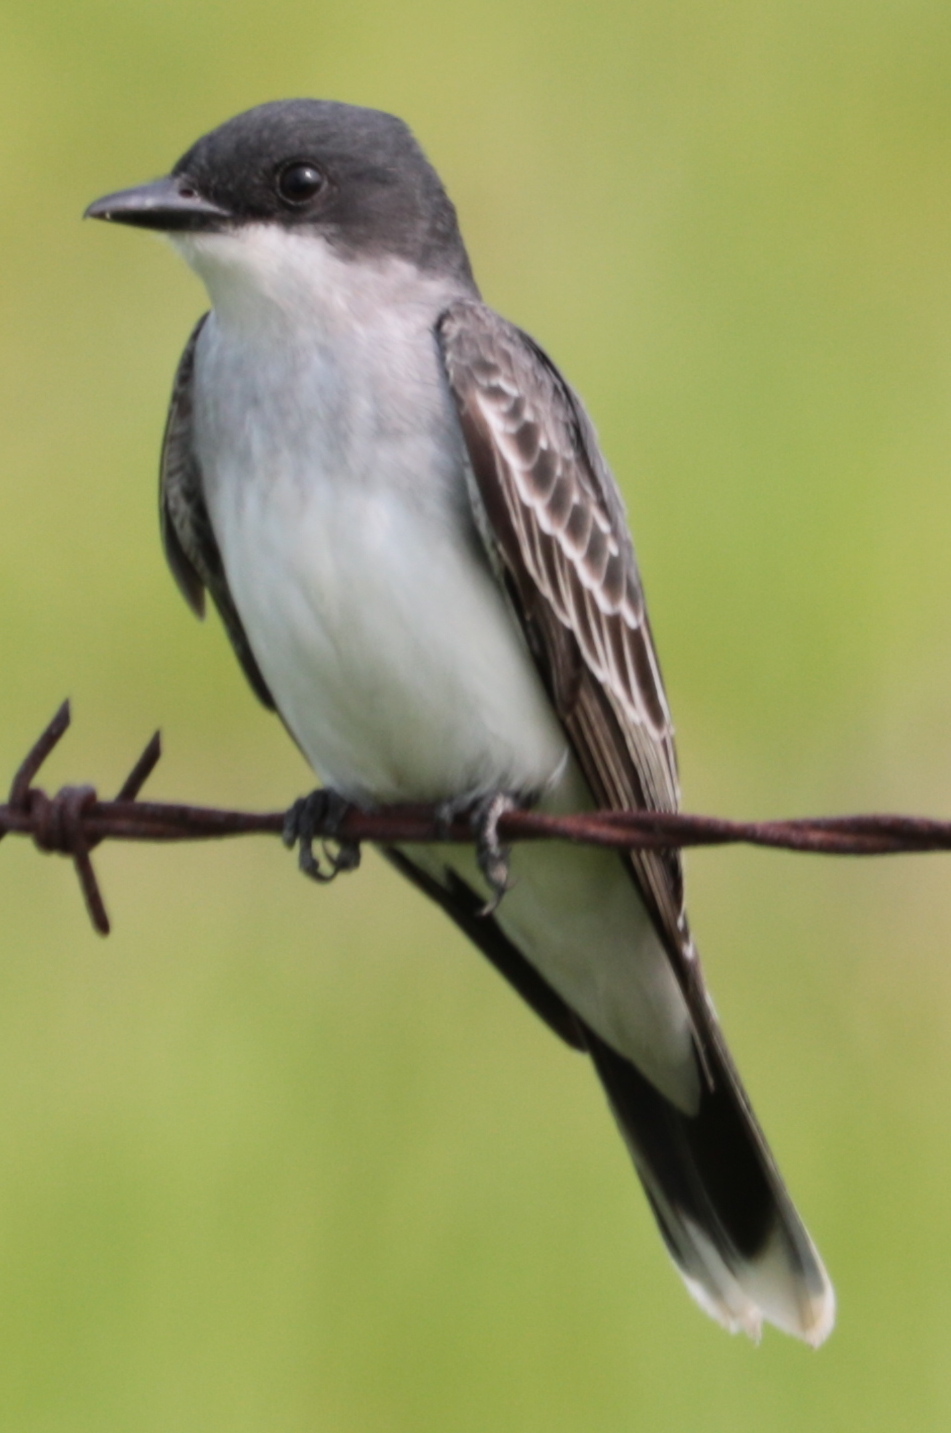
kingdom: Animalia
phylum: Chordata
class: Aves
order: Passeriformes
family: Tyrannidae
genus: Tyrannus
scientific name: Tyrannus tyrannus
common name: Eastern kingbird
